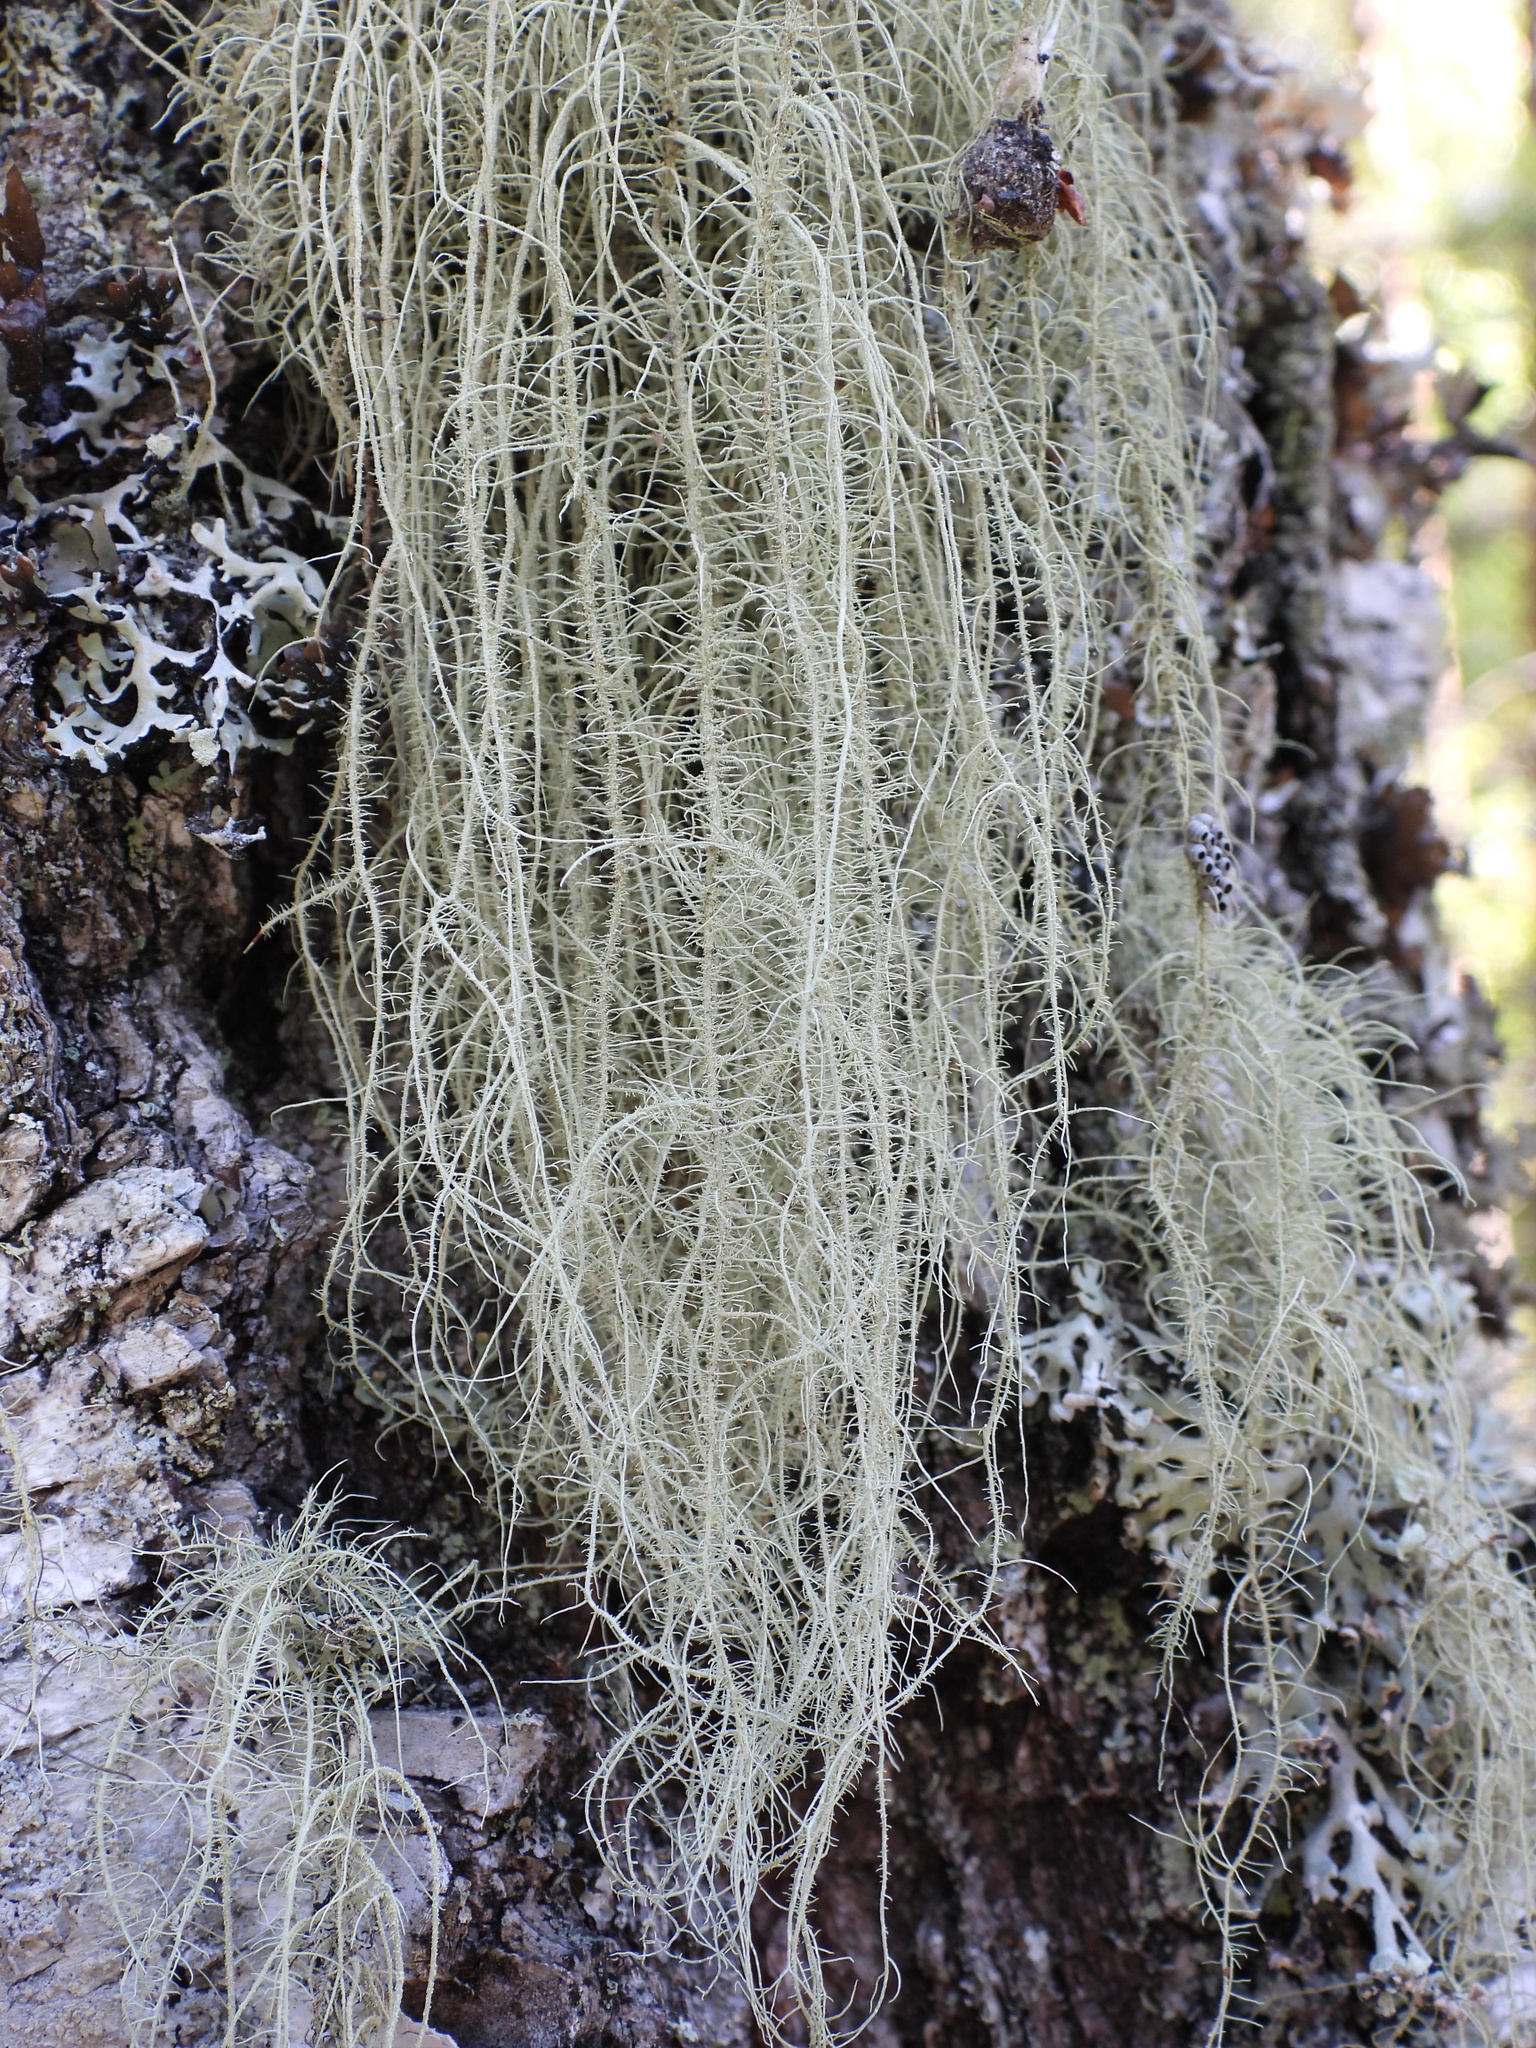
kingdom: Fungi
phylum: Ascomycota
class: Lecanoromycetes
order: Lecanorales
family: Parmeliaceae
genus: Usnea
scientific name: Usnea dasopoga
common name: Fishbone beard lichen
